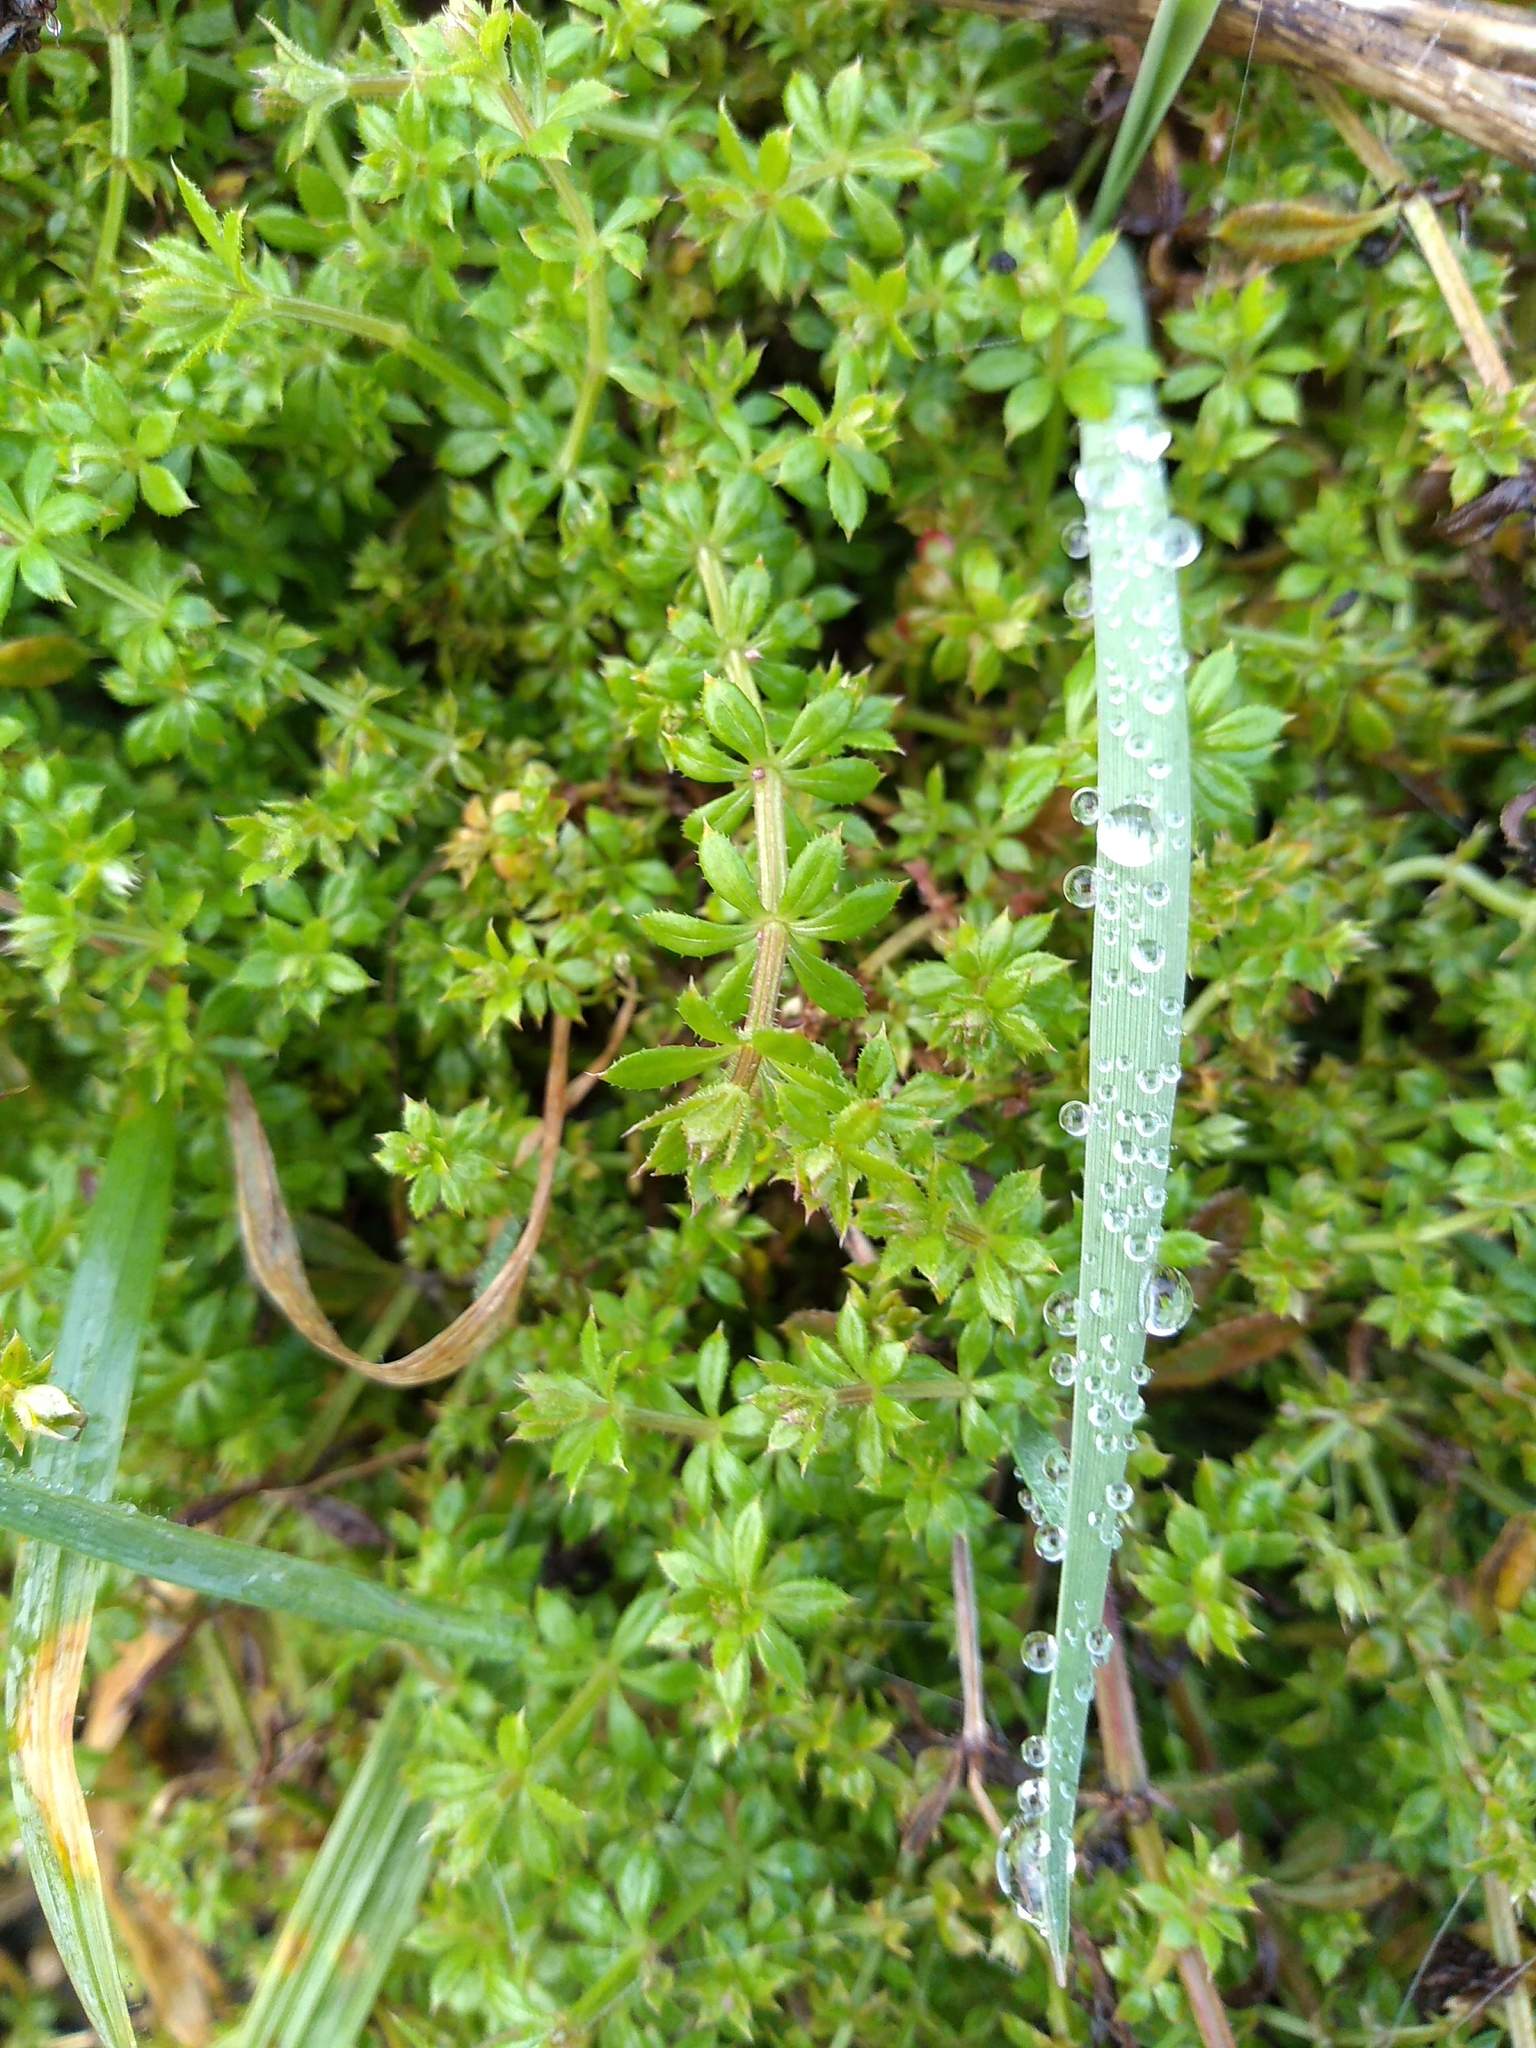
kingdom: Plantae
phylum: Tracheophyta
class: Magnoliopsida
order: Gentianales
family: Rubiaceae
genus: Galium
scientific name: Galium aparine
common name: Cleavers
